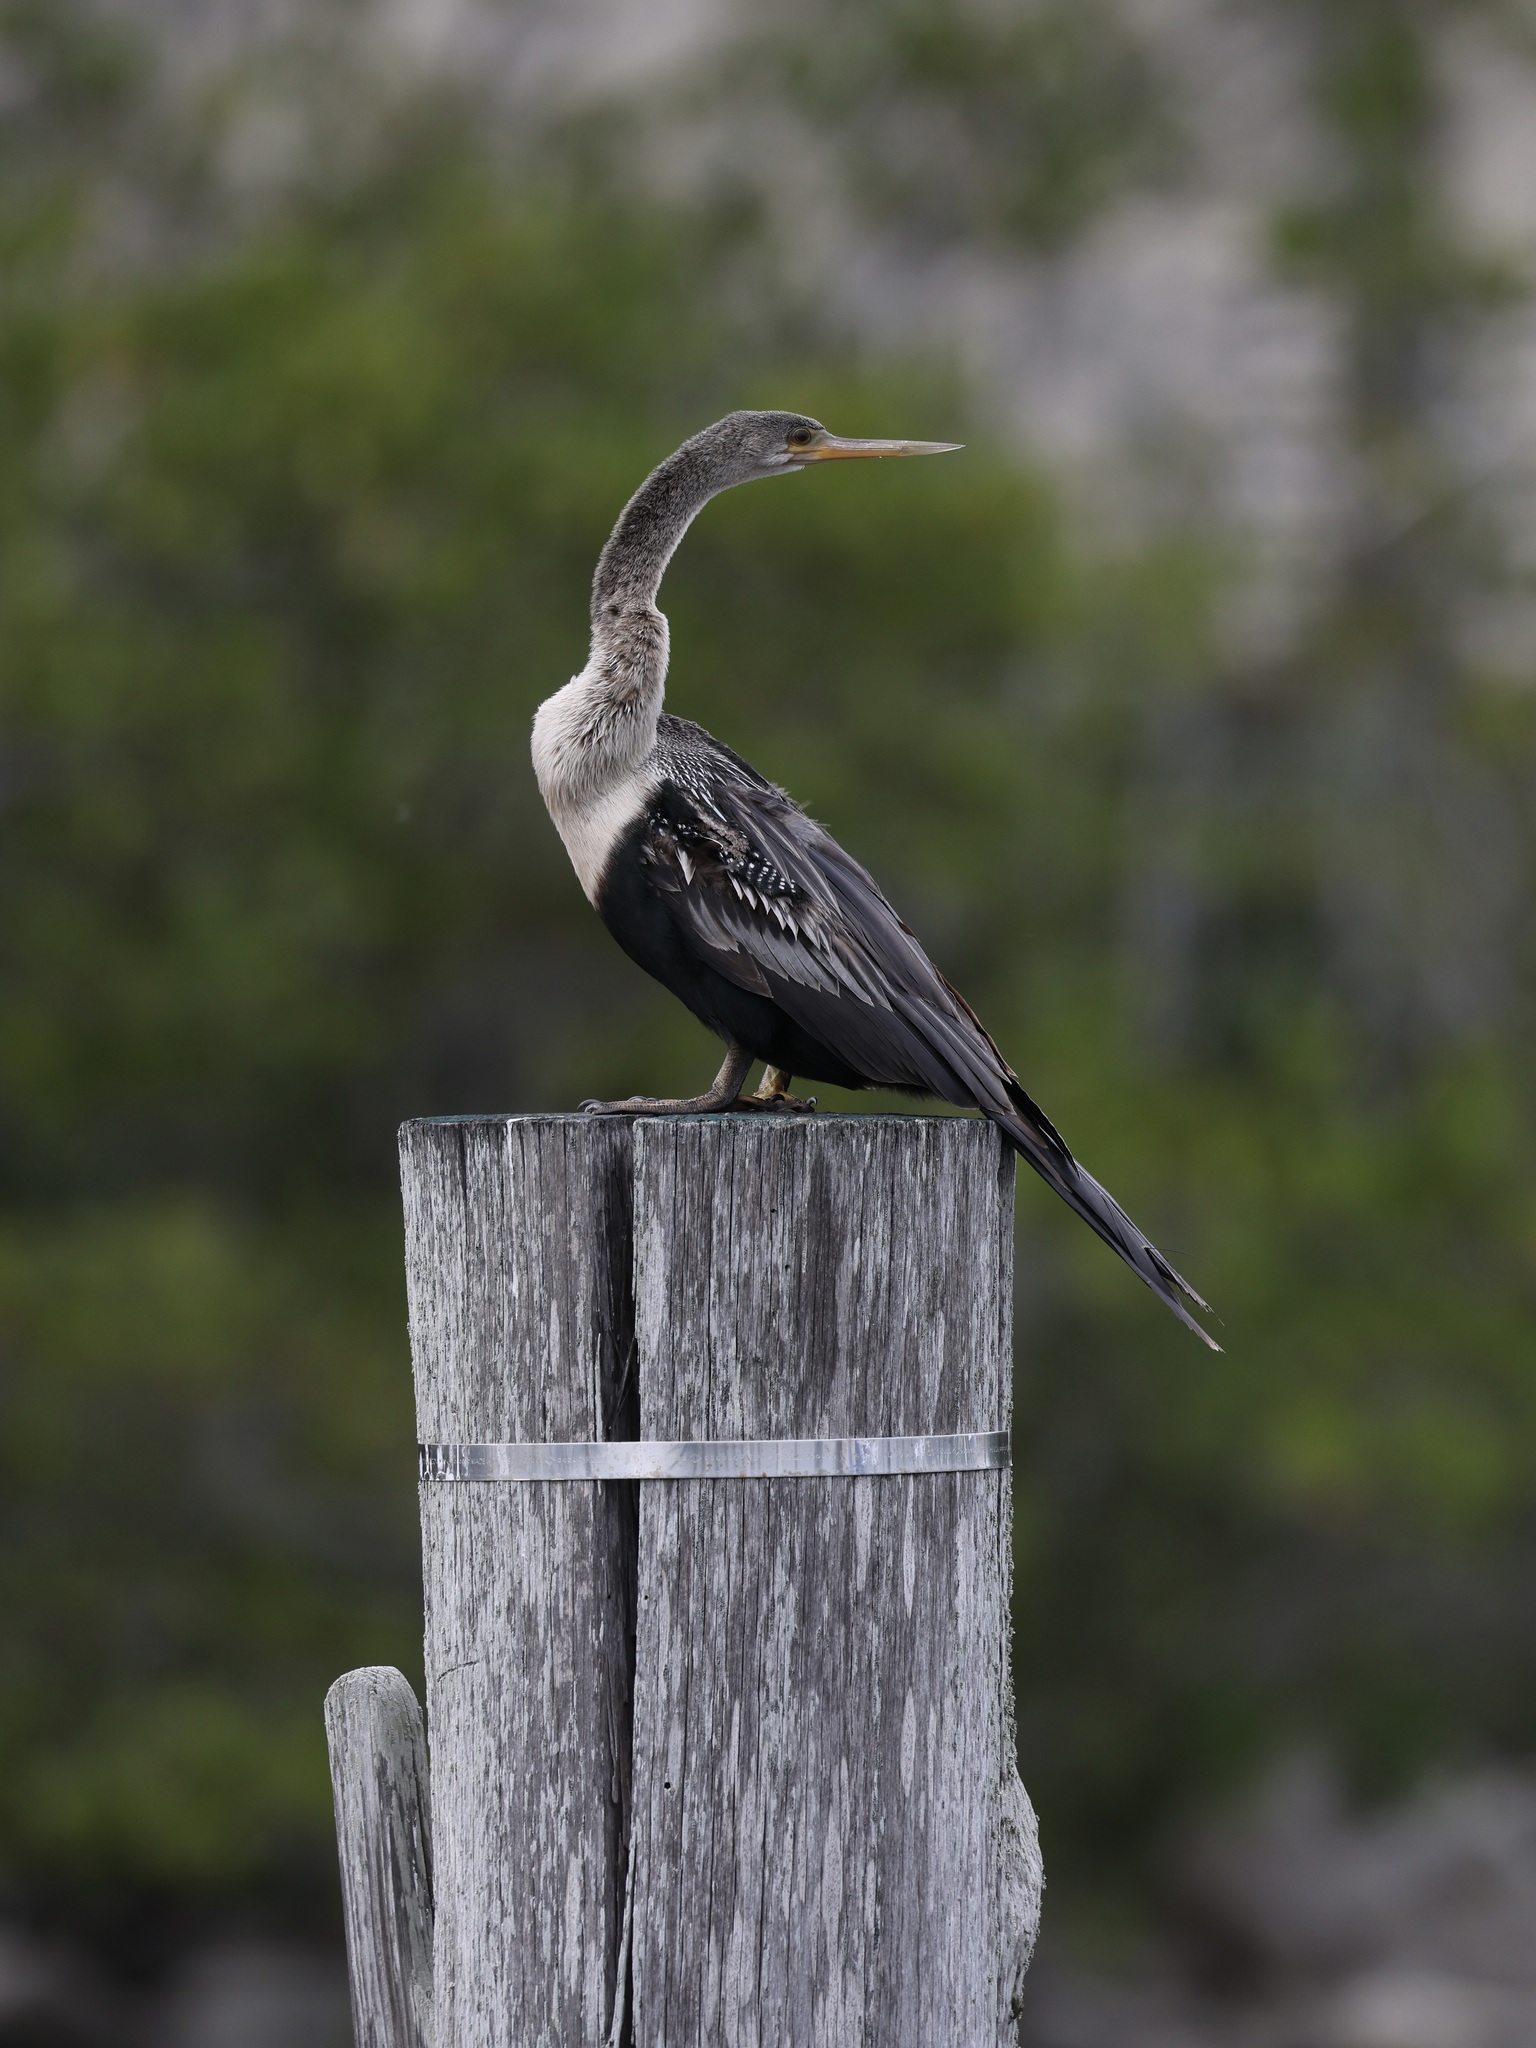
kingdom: Animalia
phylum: Chordata
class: Aves
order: Suliformes
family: Anhingidae
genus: Anhinga
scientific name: Anhinga anhinga
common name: Anhinga
